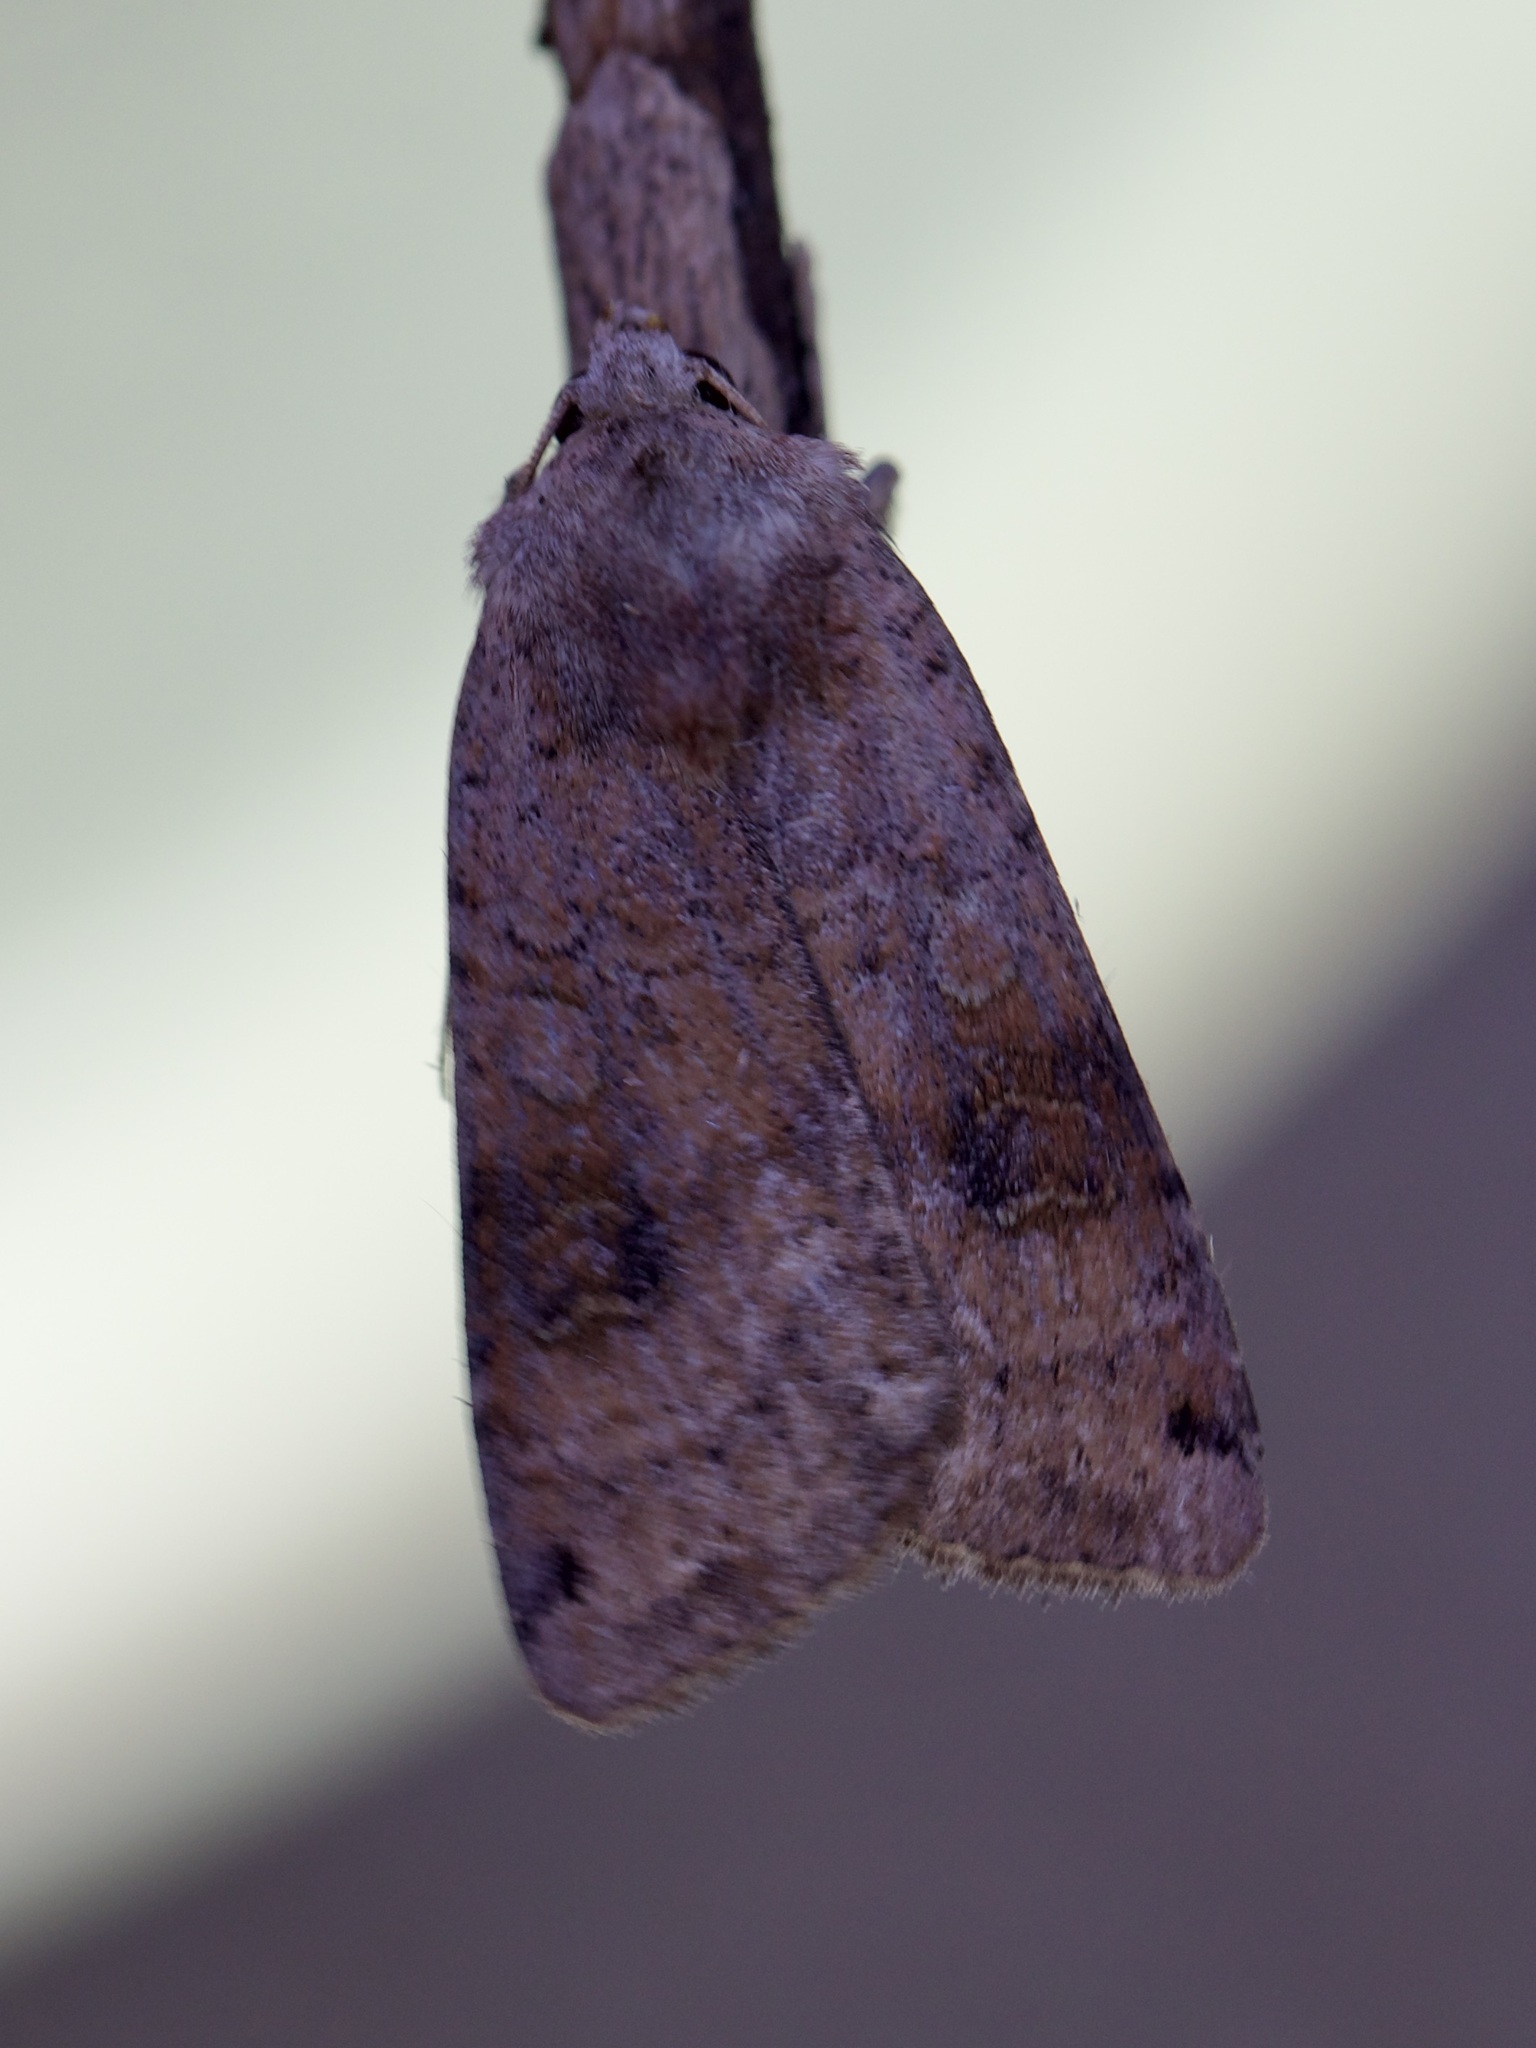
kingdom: Animalia
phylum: Arthropoda
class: Insecta
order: Lepidoptera
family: Noctuidae
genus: Xestia
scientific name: Xestia baja
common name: Dotted clay
